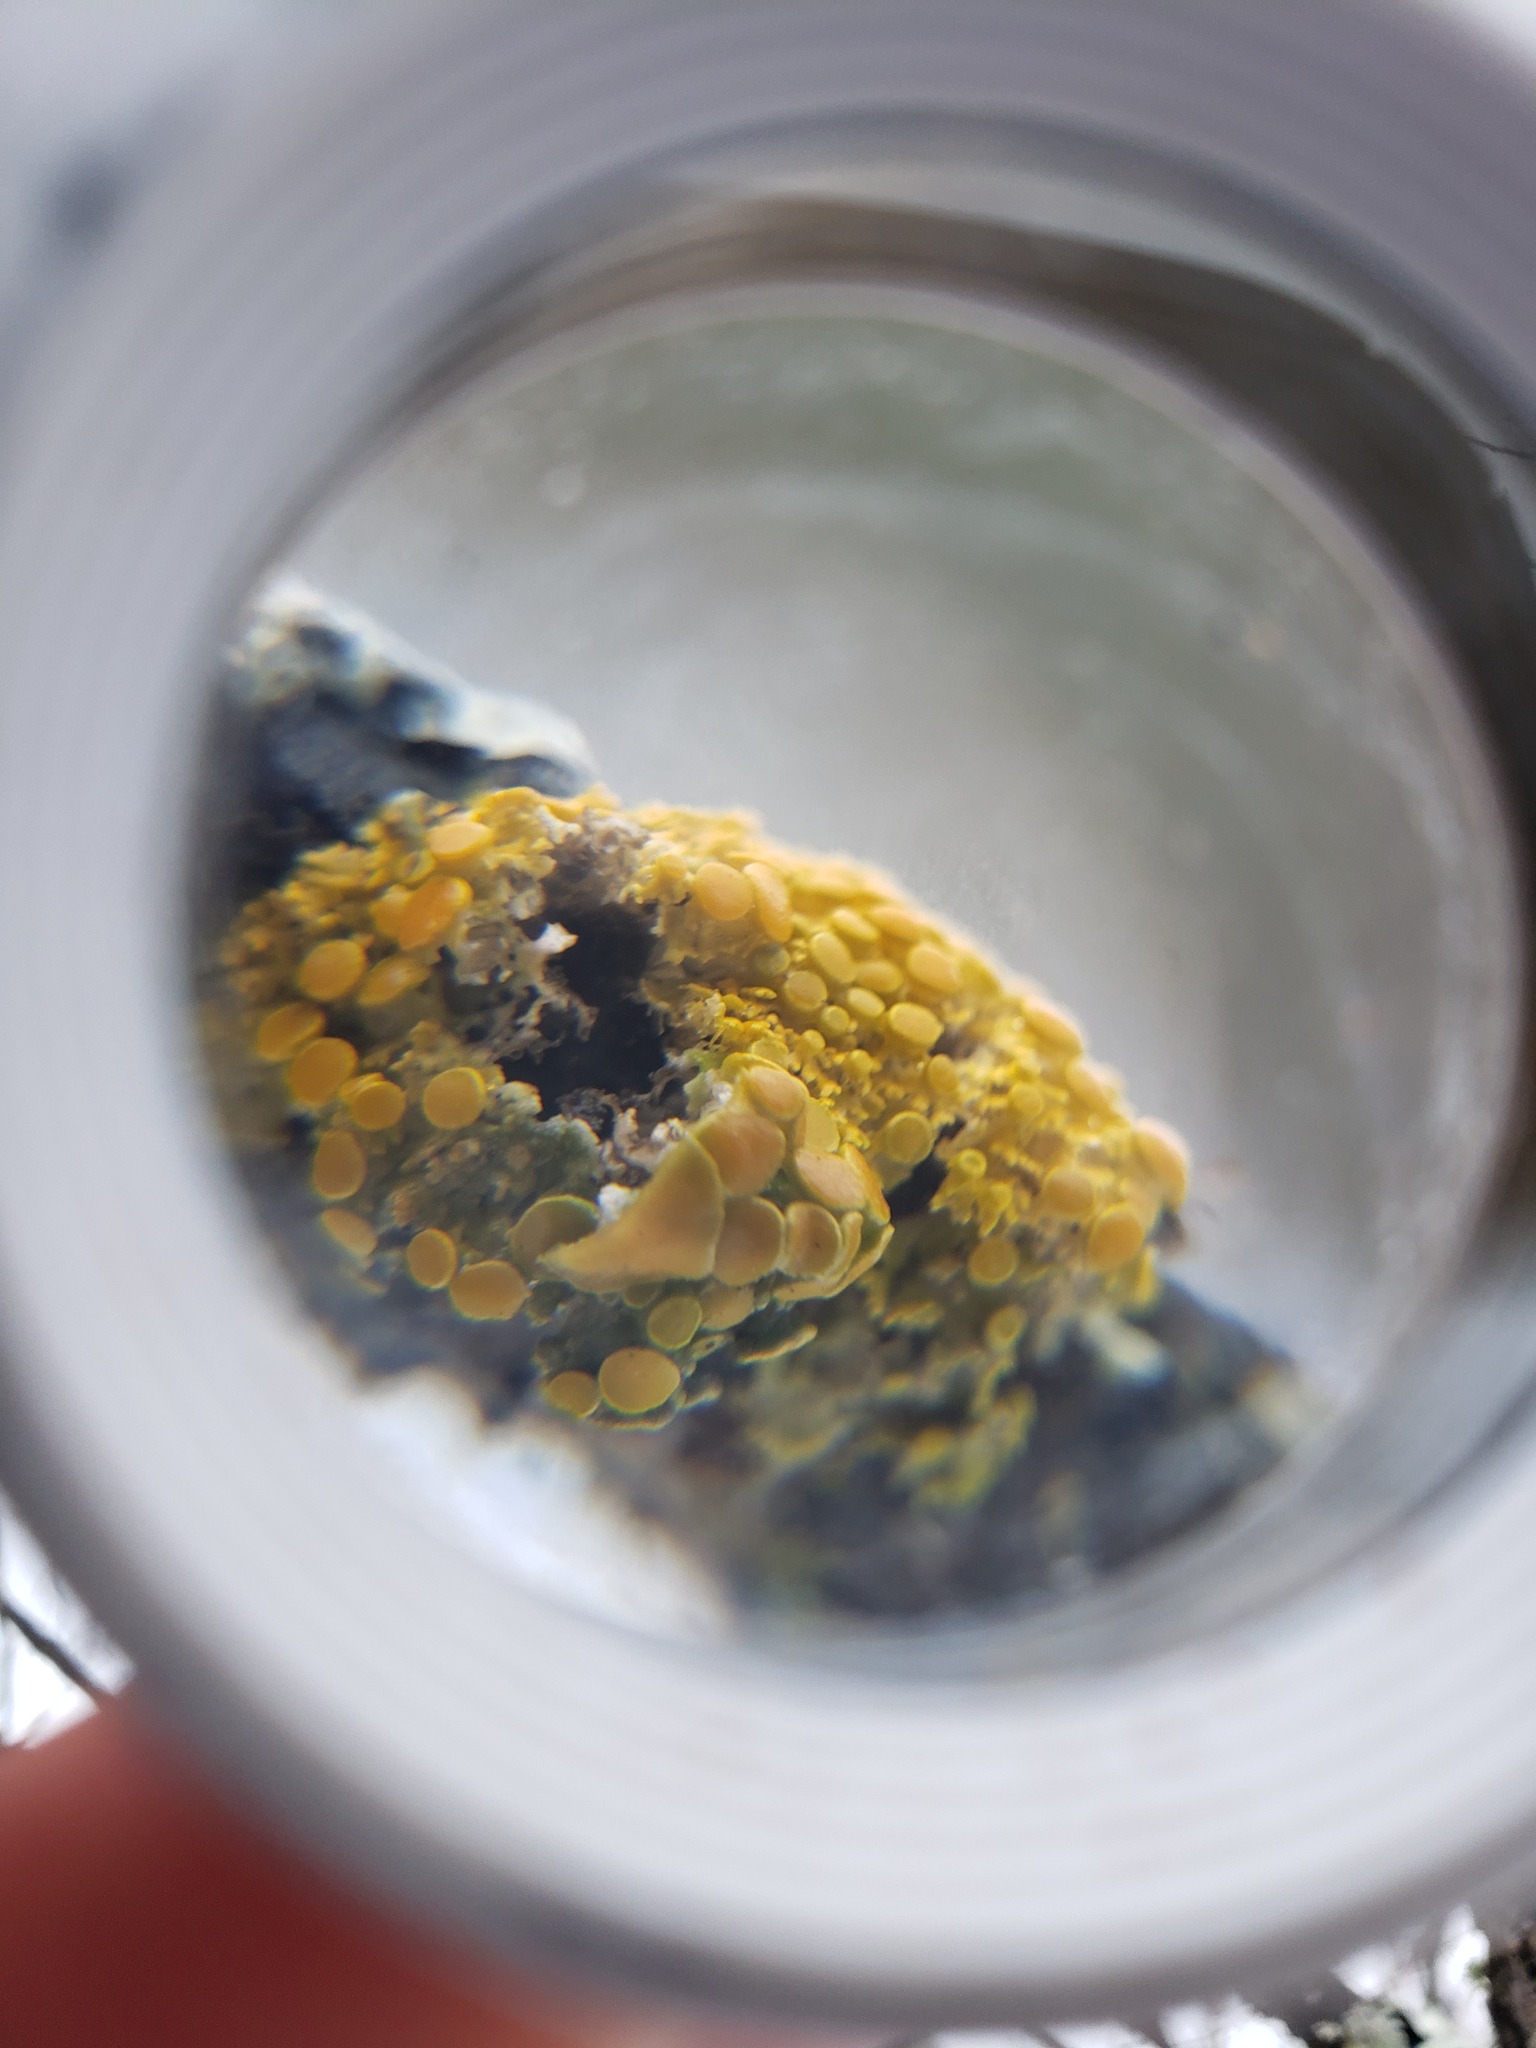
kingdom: Fungi
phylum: Ascomycota
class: Lecanoromycetes
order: Teloschistales
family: Teloschistaceae
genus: Gallowayella
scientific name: Gallowayella hasseana
